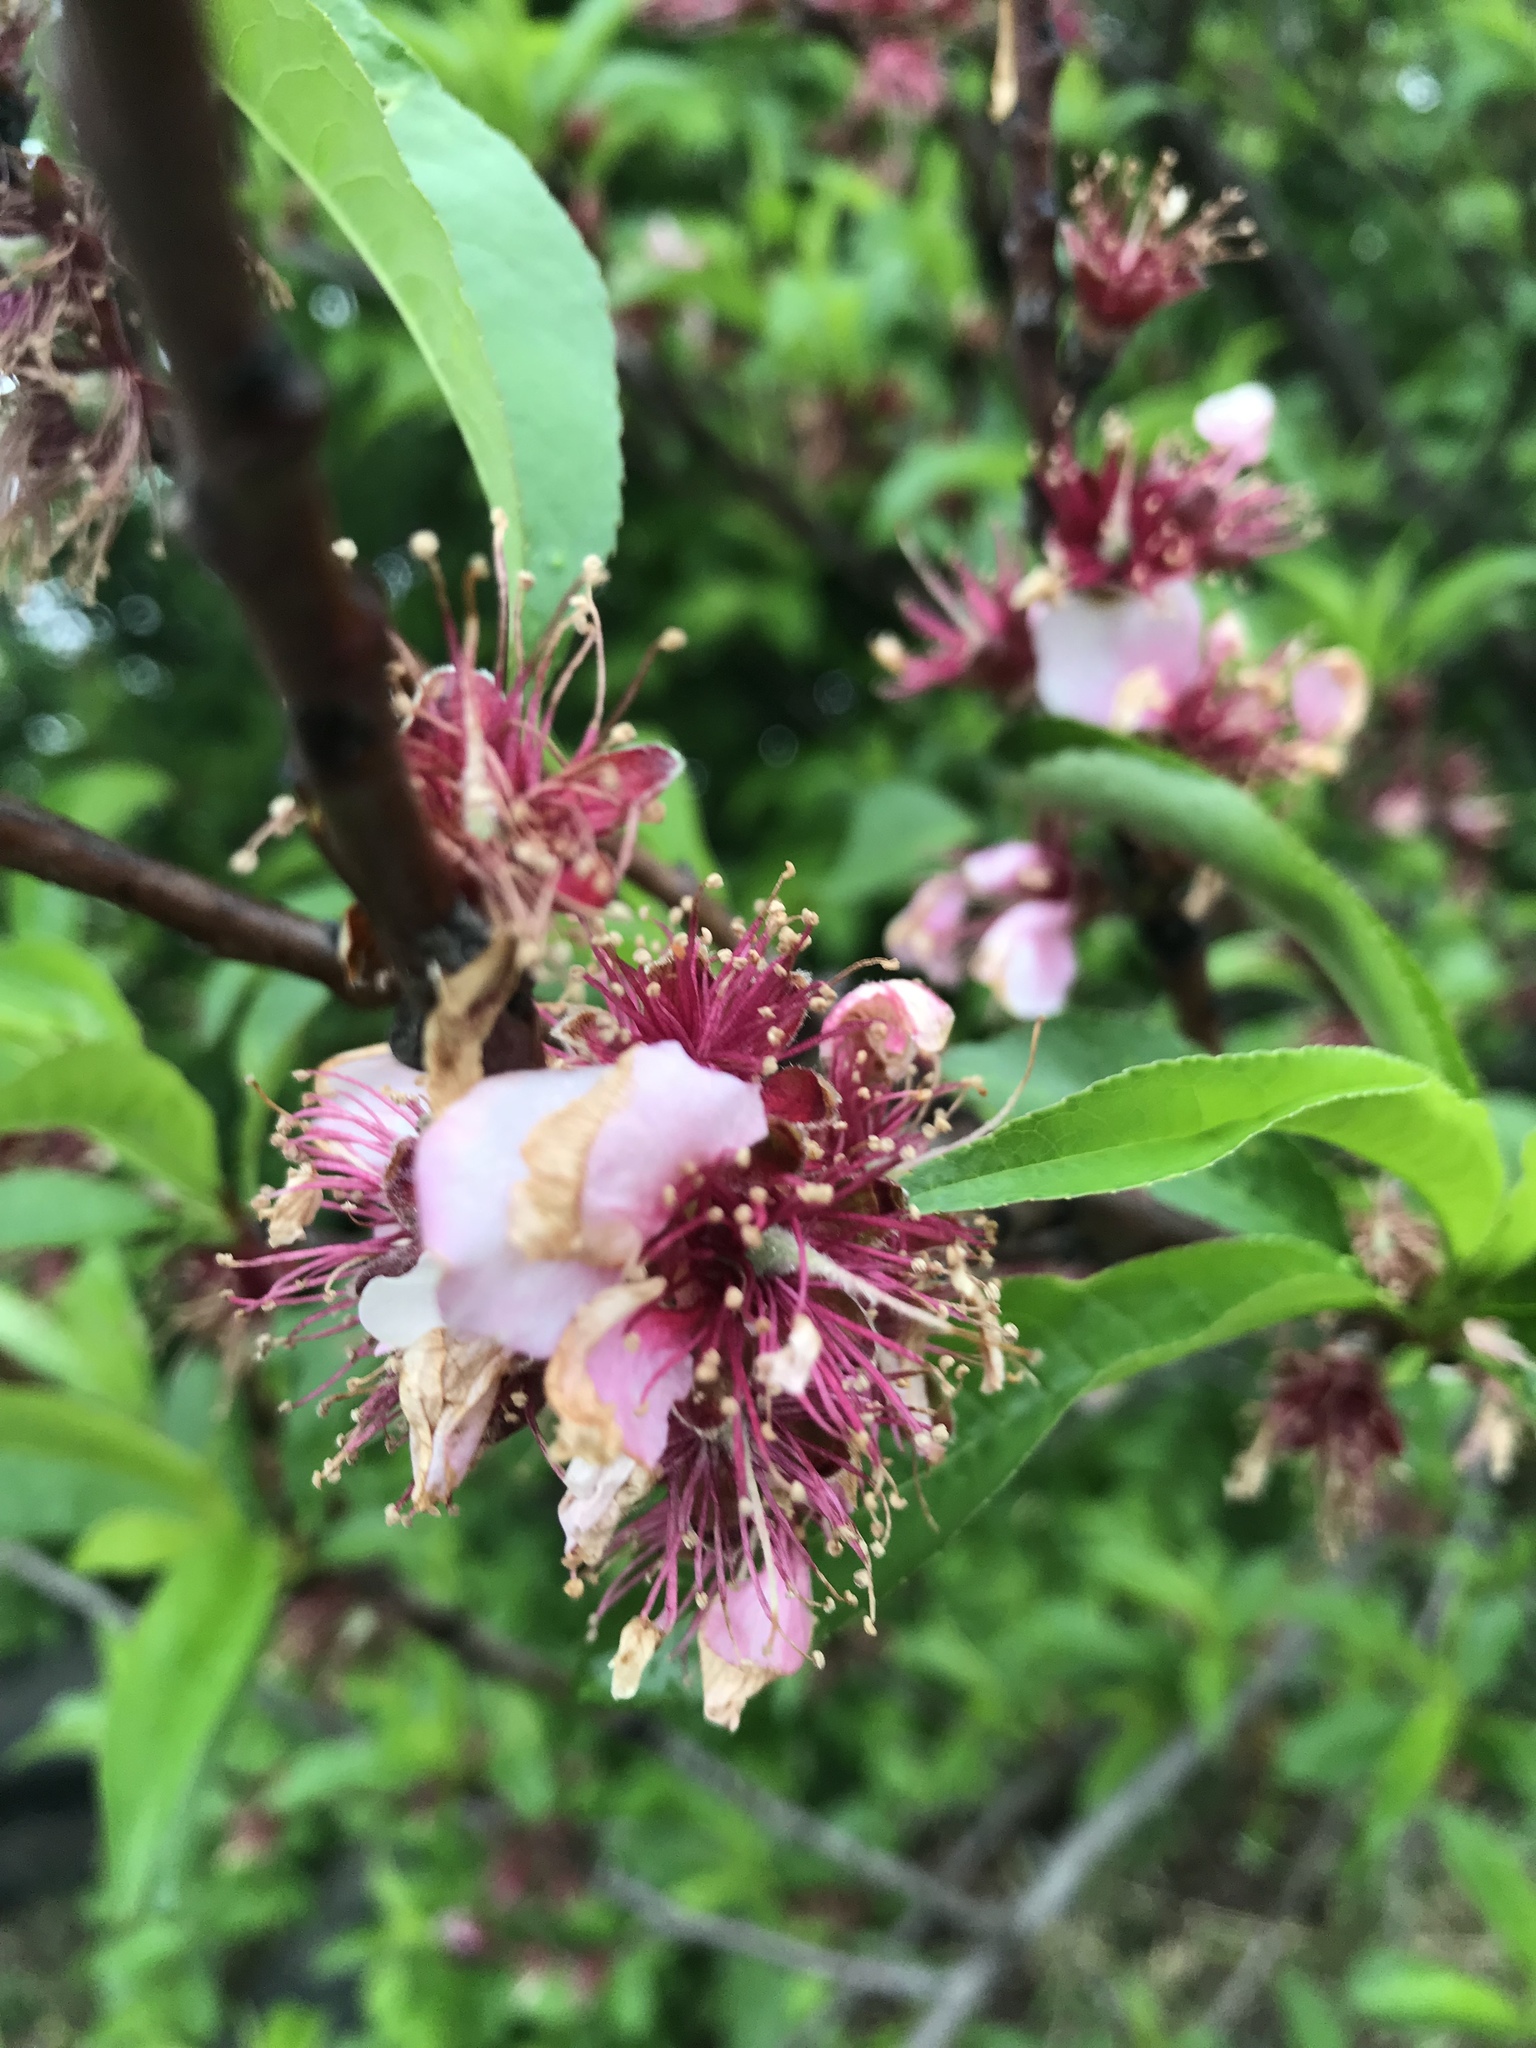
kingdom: Plantae
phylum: Tracheophyta
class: Magnoliopsida
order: Rosales
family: Rosaceae
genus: Prunus
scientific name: Prunus persica
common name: Peach
